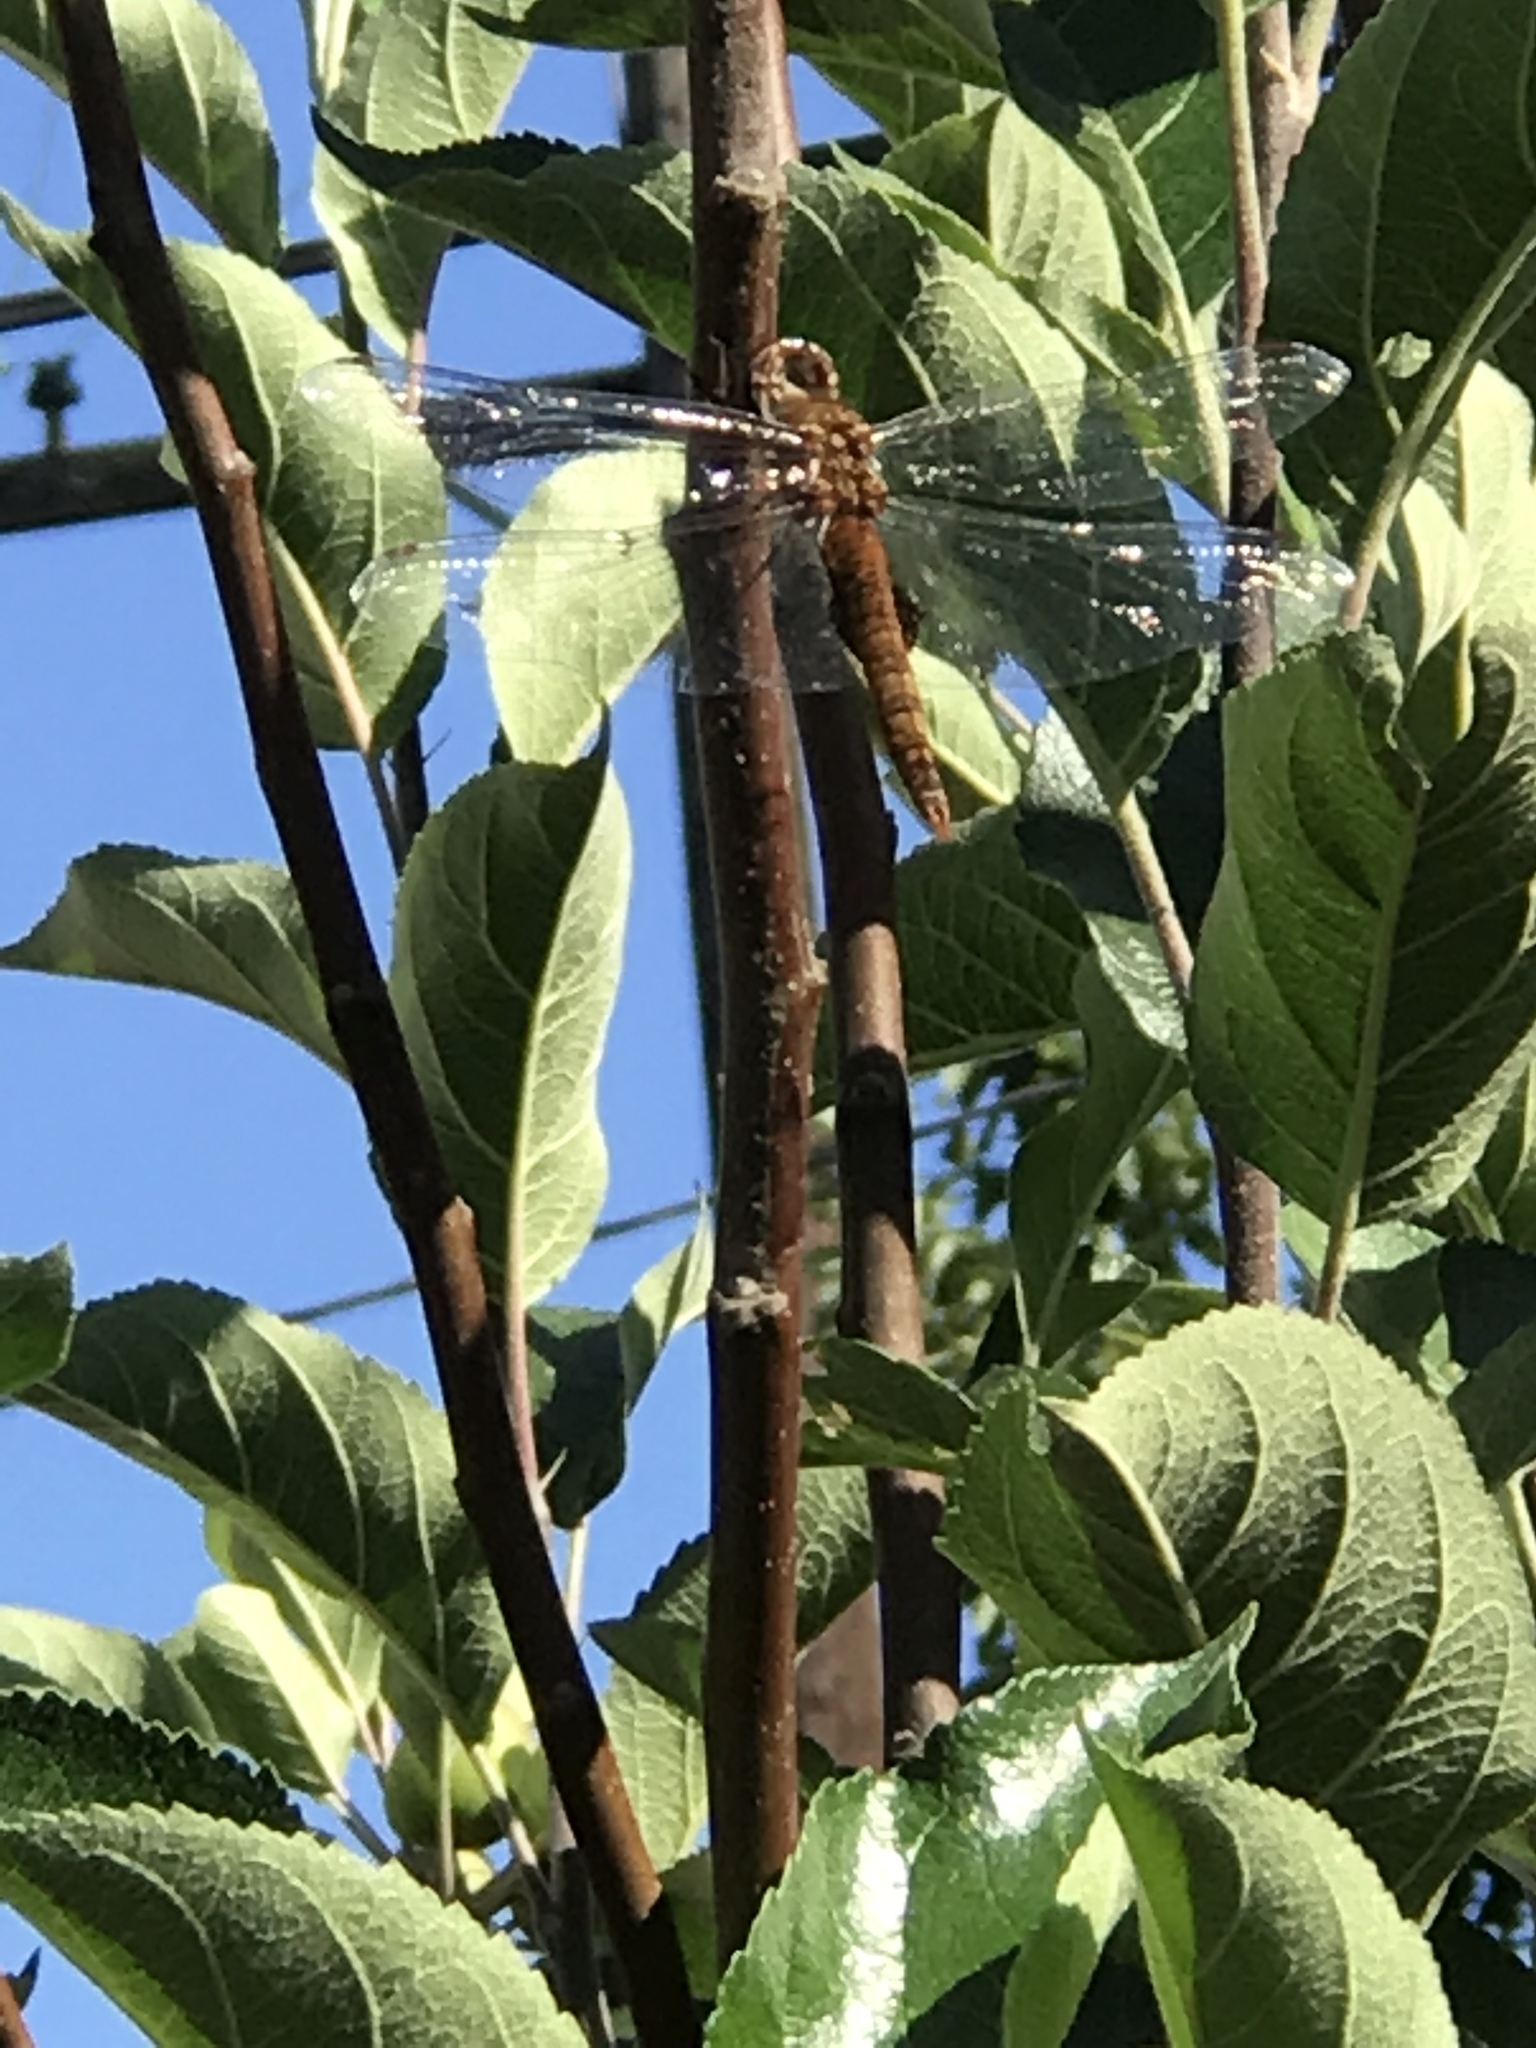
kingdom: Animalia
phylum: Arthropoda
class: Insecta
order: Odonata
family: Libellulidae
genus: Pantala
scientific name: Pantala hymenaea
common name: Spot-winged glider
